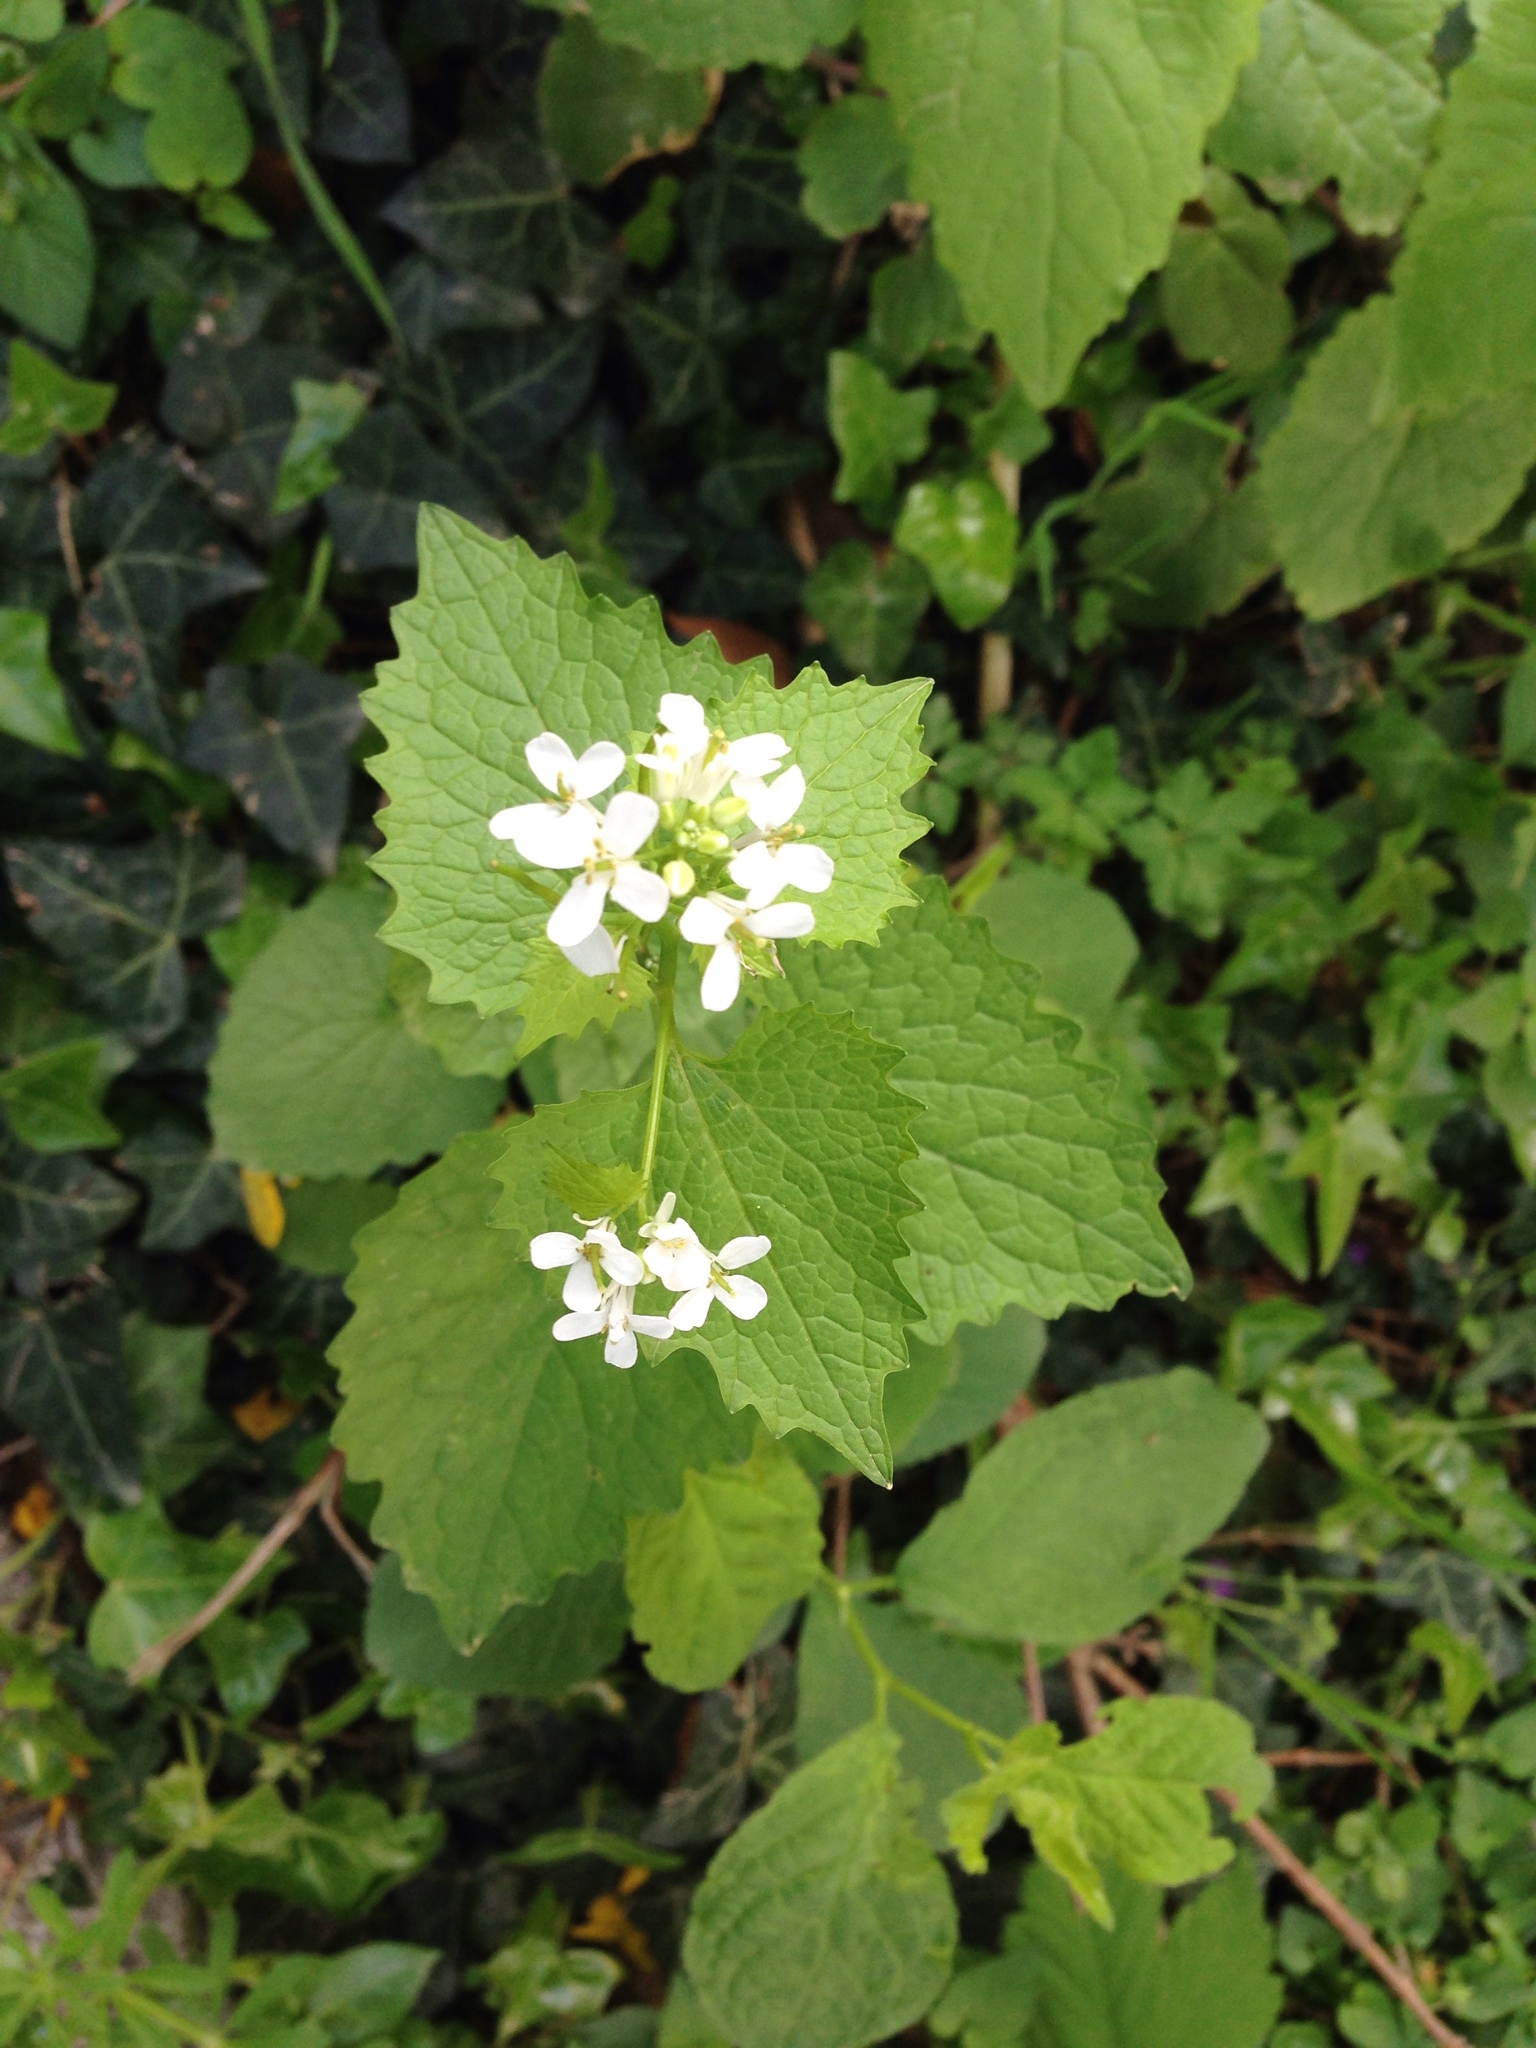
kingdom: Plantae
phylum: Tracheophyta
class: Magnoliopsida
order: Brassicales
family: Brassicaceae
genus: Alliaria
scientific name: Alliaria petiolata
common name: Garlic mustard
